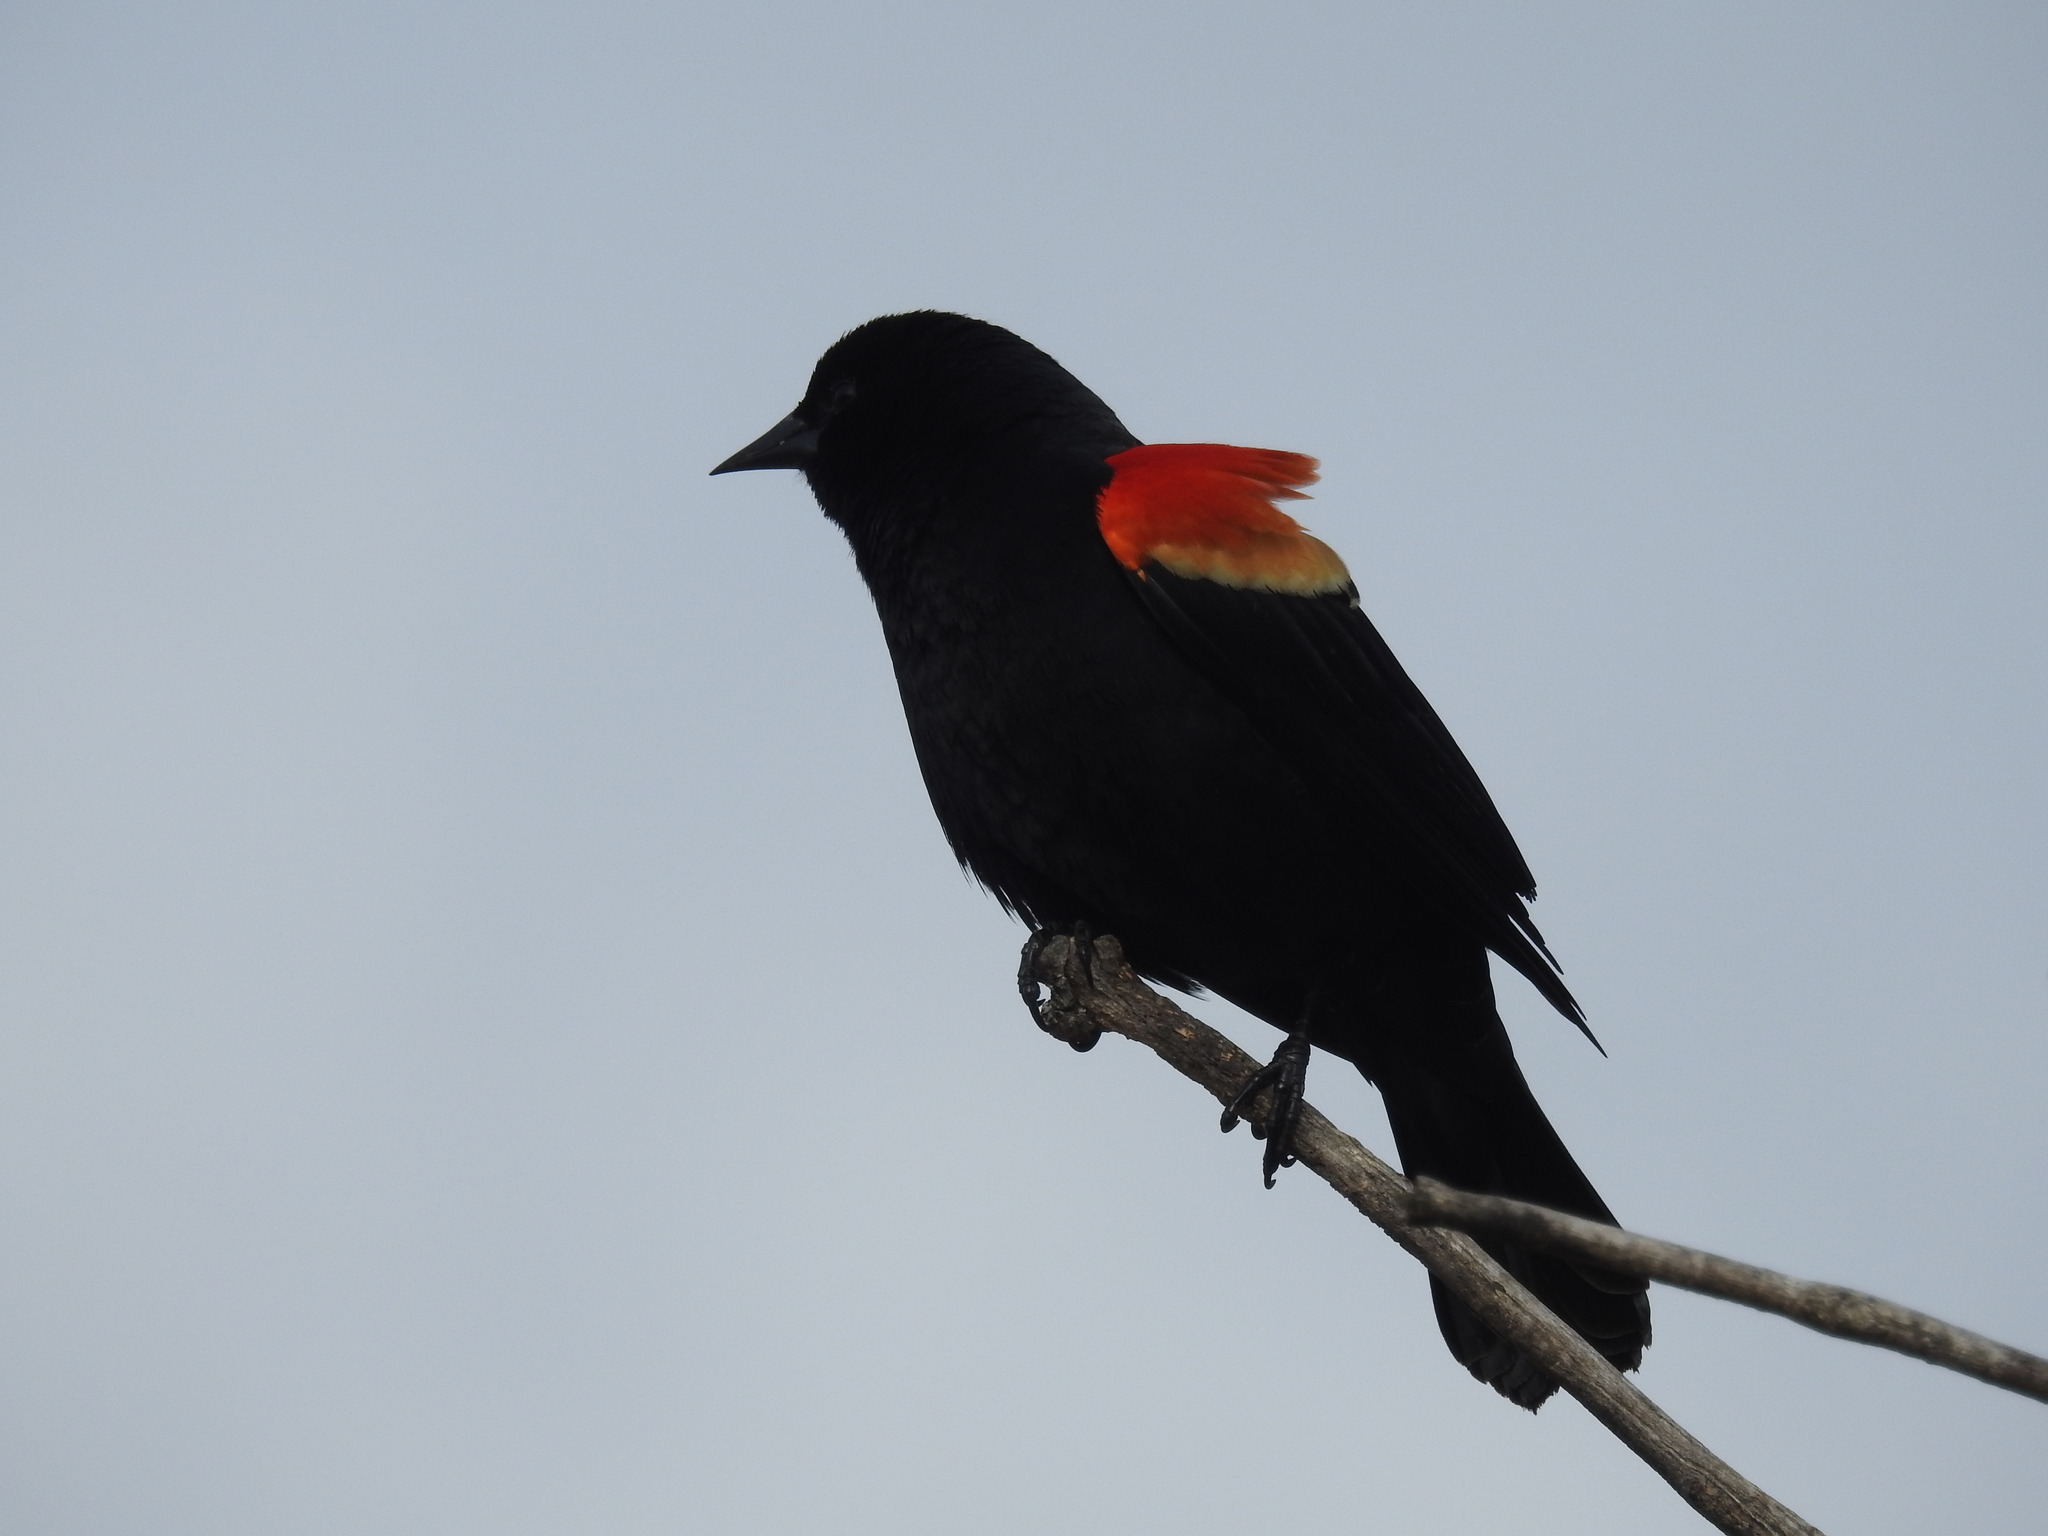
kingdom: Animalia
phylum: Chordata
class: Aves
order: Passeriformes
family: Icteridae
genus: Agelaius
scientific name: Agelaius phoeniceus
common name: Red-winged blackbird
